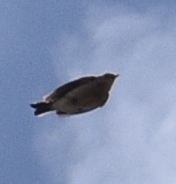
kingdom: Animalia
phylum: Chordata
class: Aves
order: Passeriformes
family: Motacillidae
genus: Anthus
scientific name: Anthus rubescens
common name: Buff-bellied pipit
